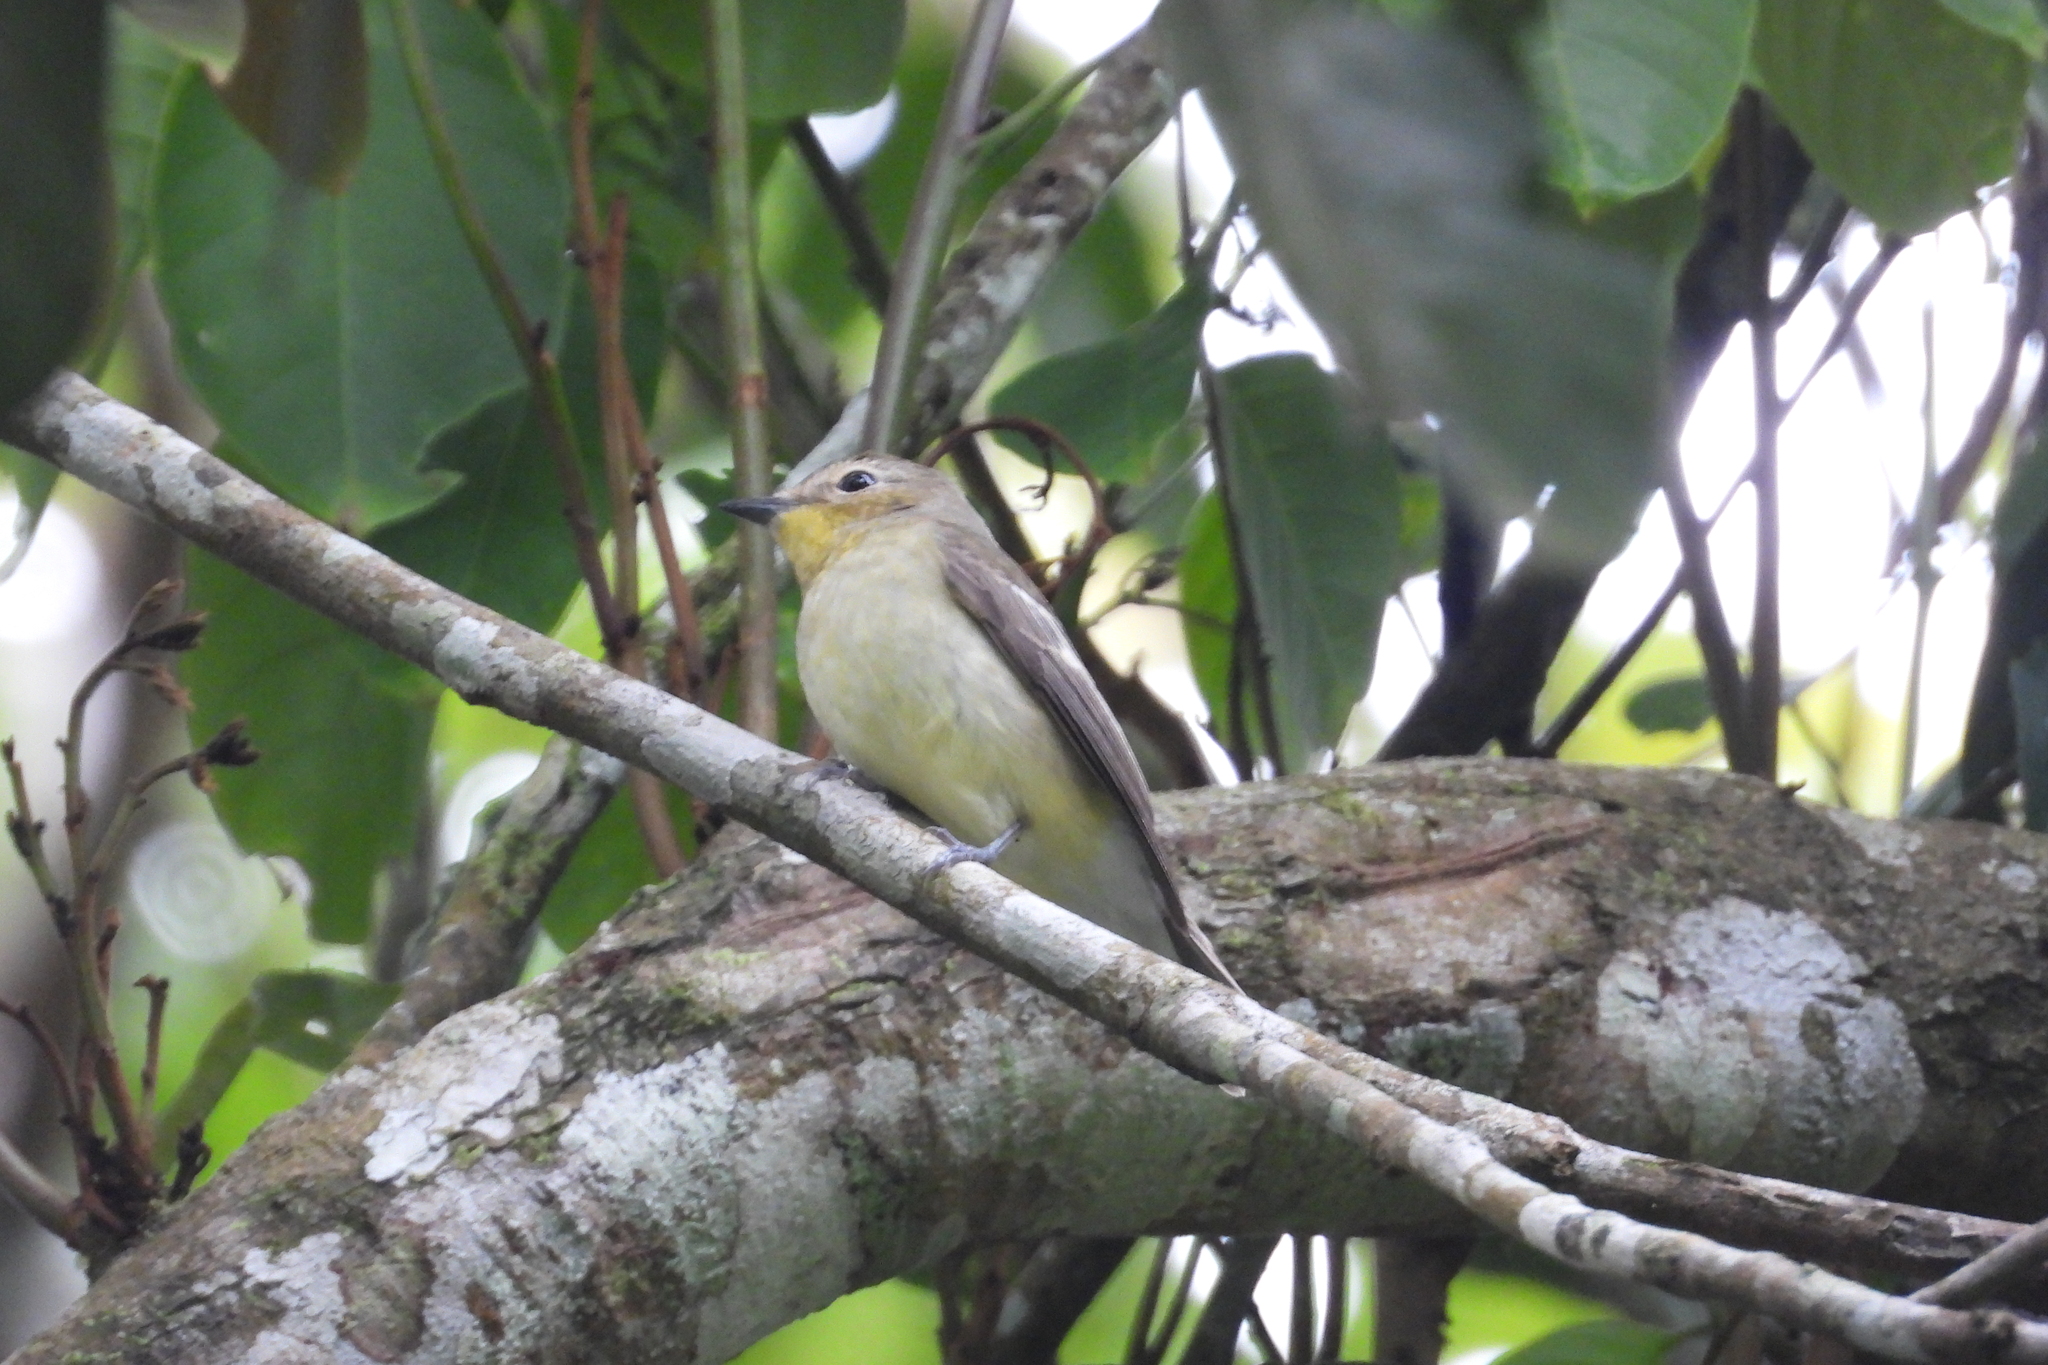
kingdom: Animalia
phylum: Chordata
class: Aves
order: Passeriformes
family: Muscicapidae
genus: Ficedula
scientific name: Ficedula zanthopygia
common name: Yellow-rumped flycatcher
